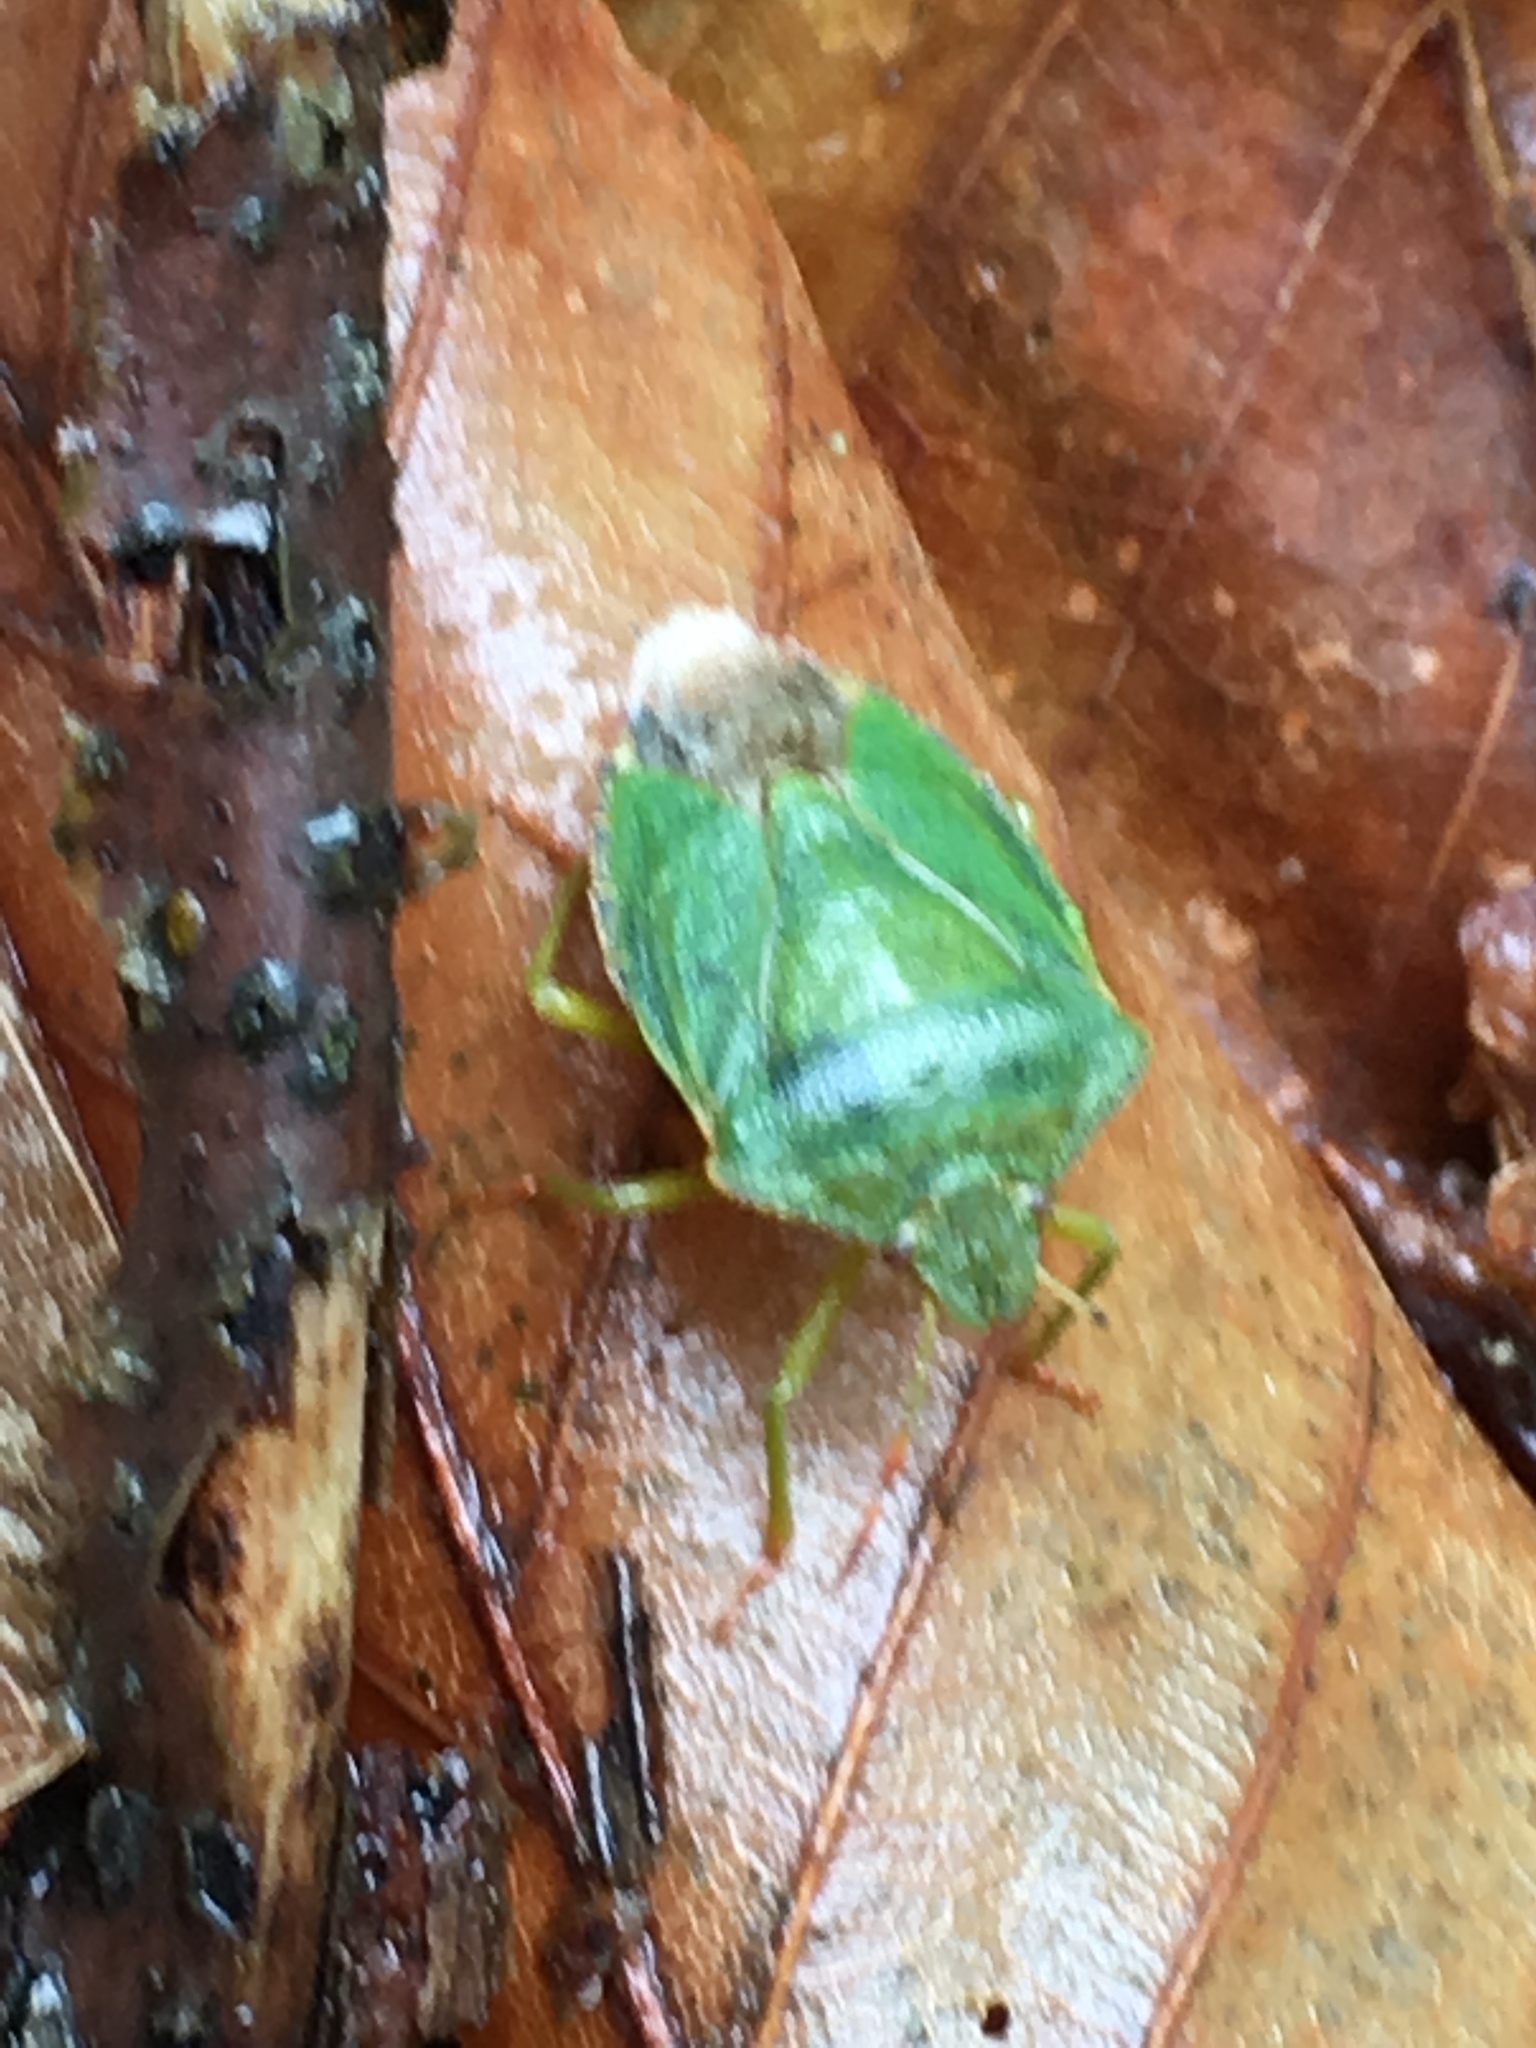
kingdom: Animalia
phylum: Arthropoda
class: Insecta
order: Hemiptera
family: Pentatomidae
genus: Palomena
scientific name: Palomena prasina
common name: Green shieldbug
